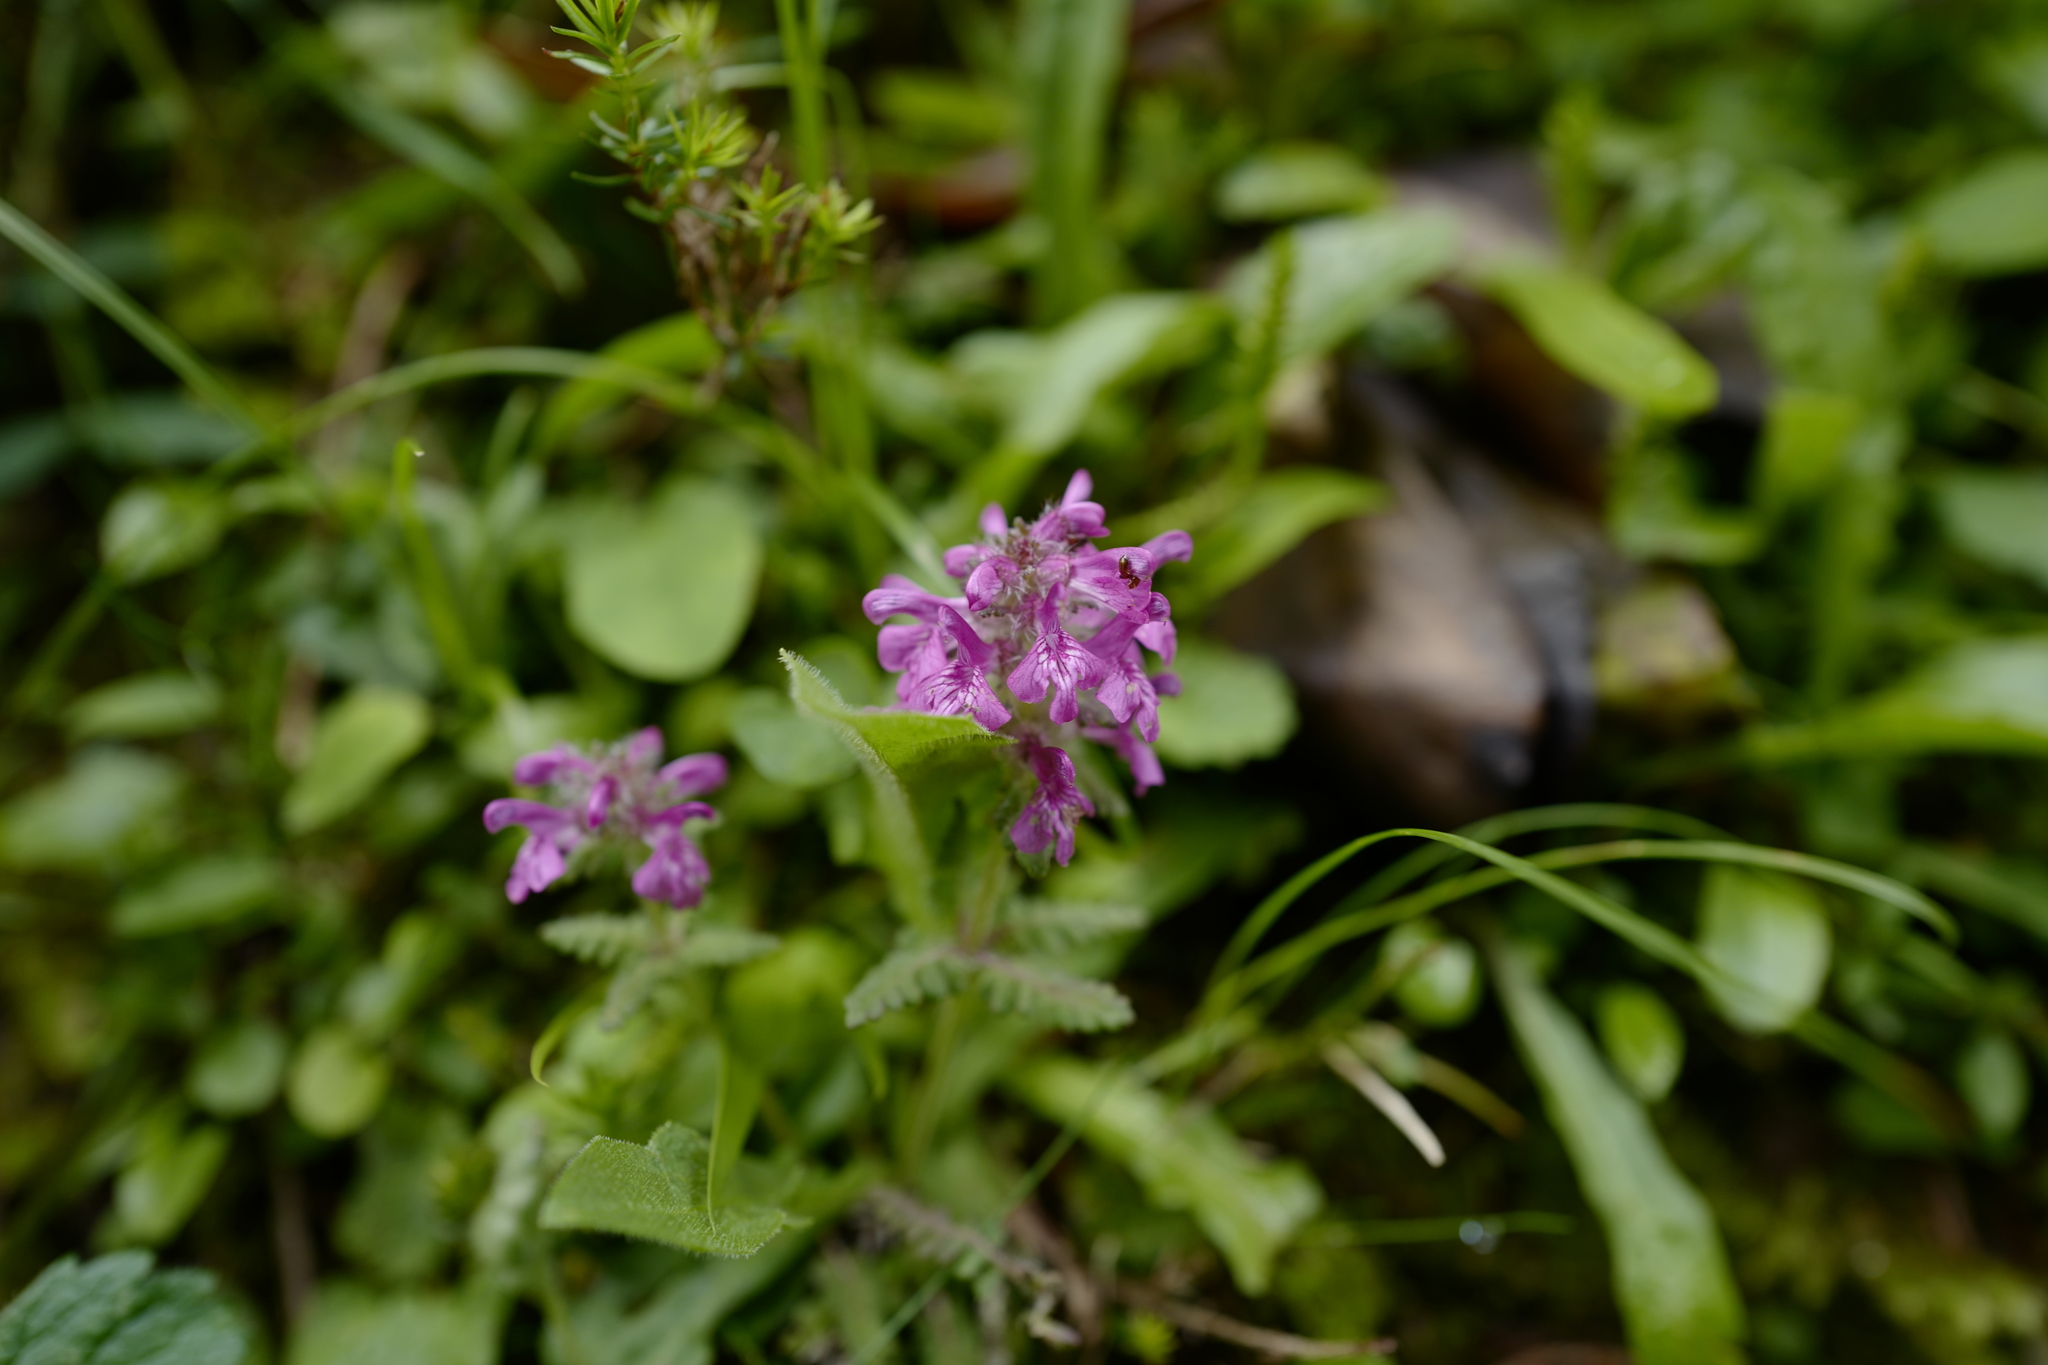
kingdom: Plantae
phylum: Tracheophyta
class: Magnoliopsida
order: Lamiales
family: Orobanchaceae
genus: Pedicularis
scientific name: Pedicularis verticillata
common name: Whorled lousewort
